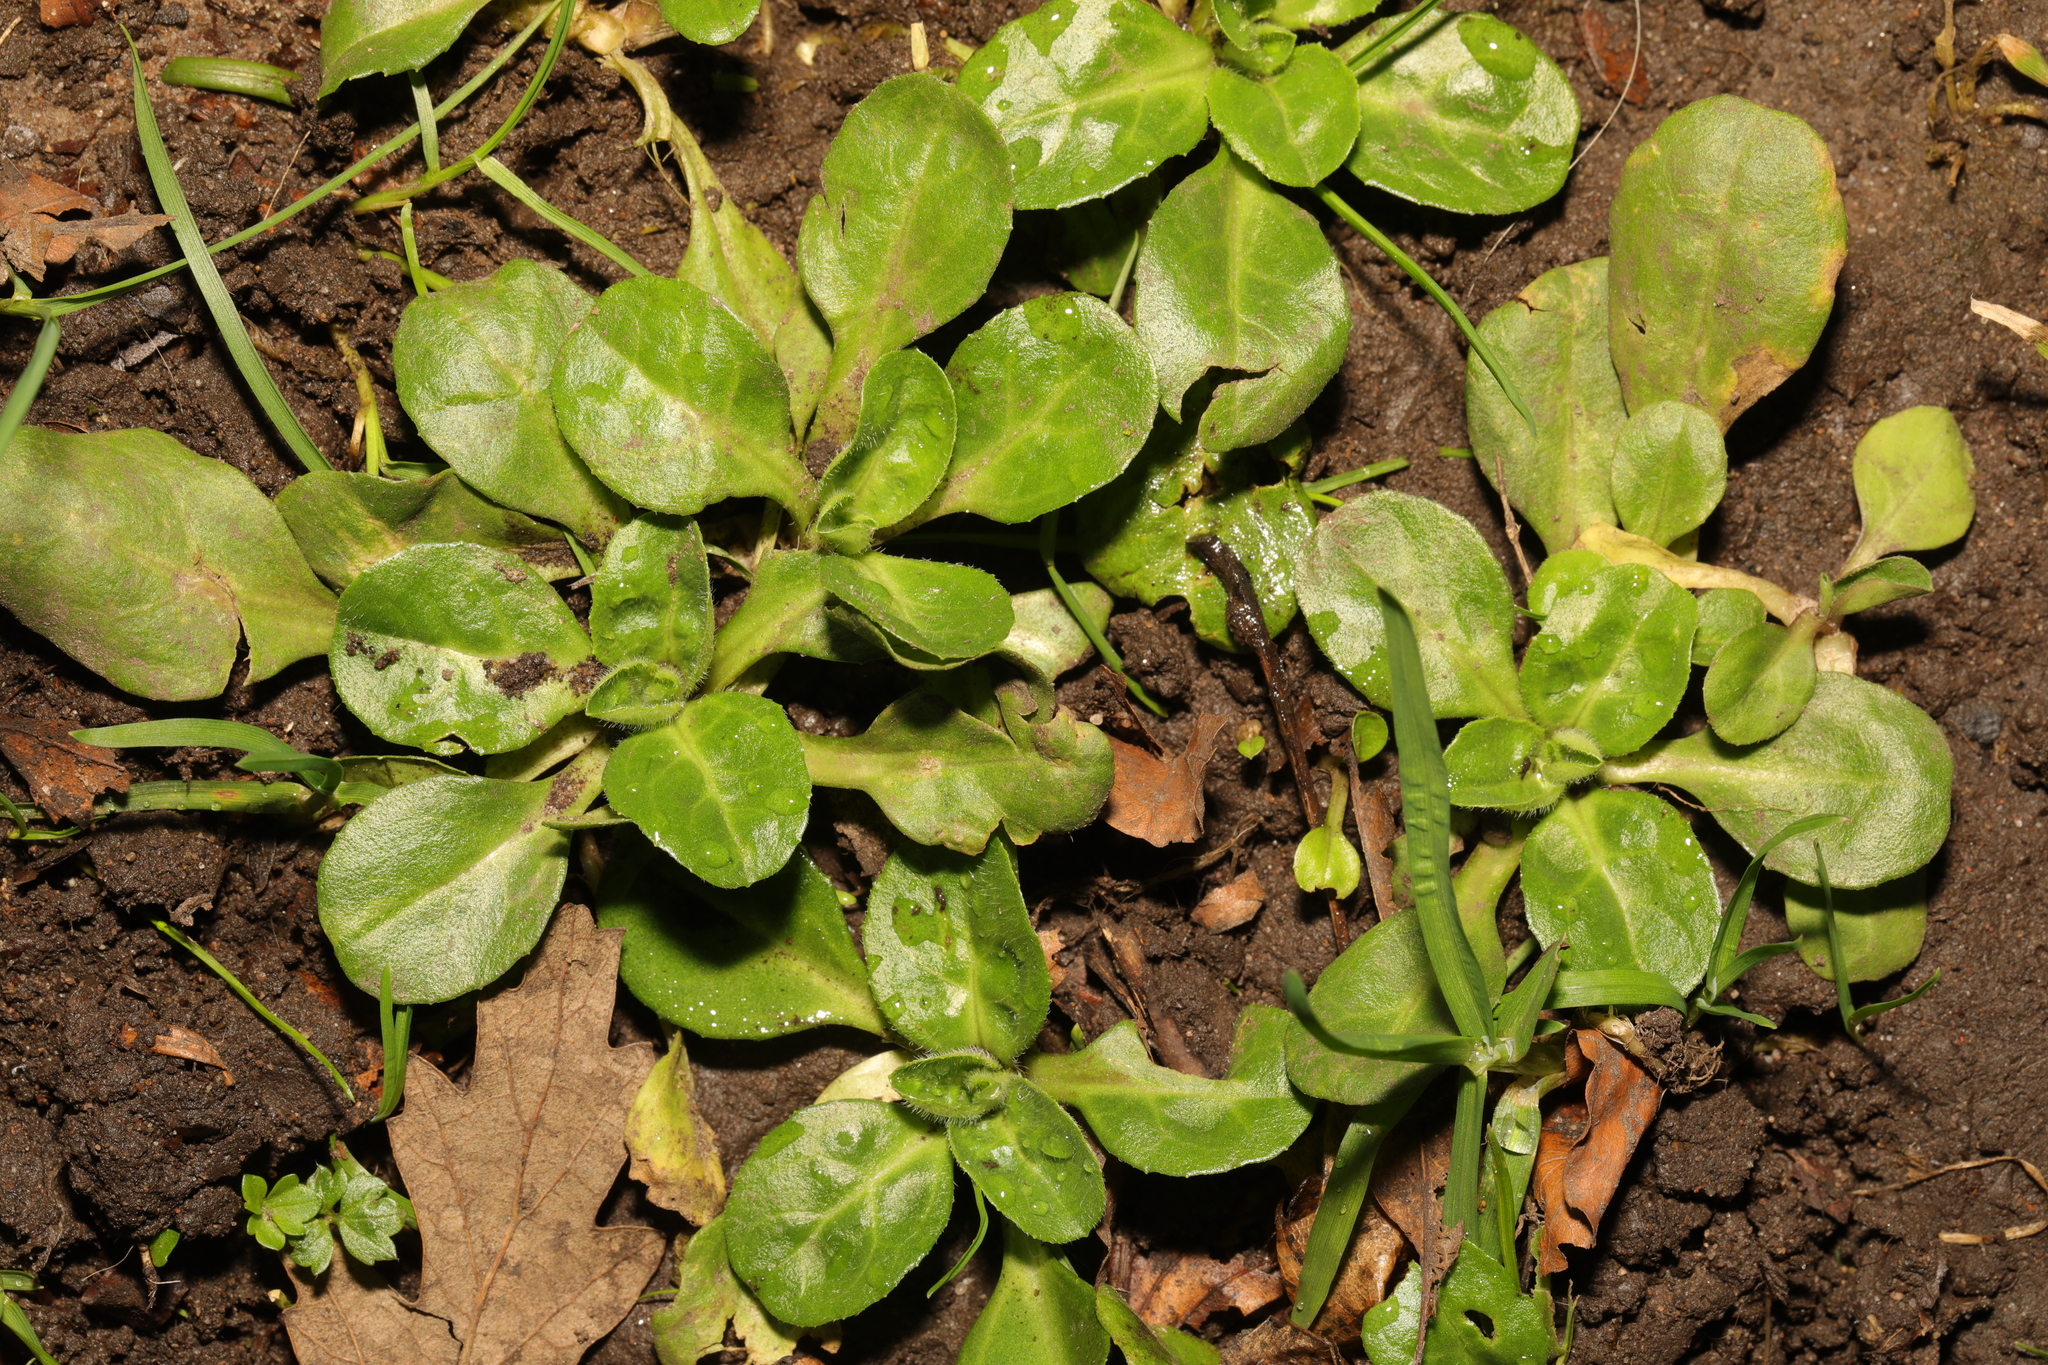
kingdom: Plantae
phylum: Tracheophyta
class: Magnoliopsida
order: Asterales
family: Asteraceae
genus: Bellis
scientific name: Bellis perennis
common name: Lawndaisy
